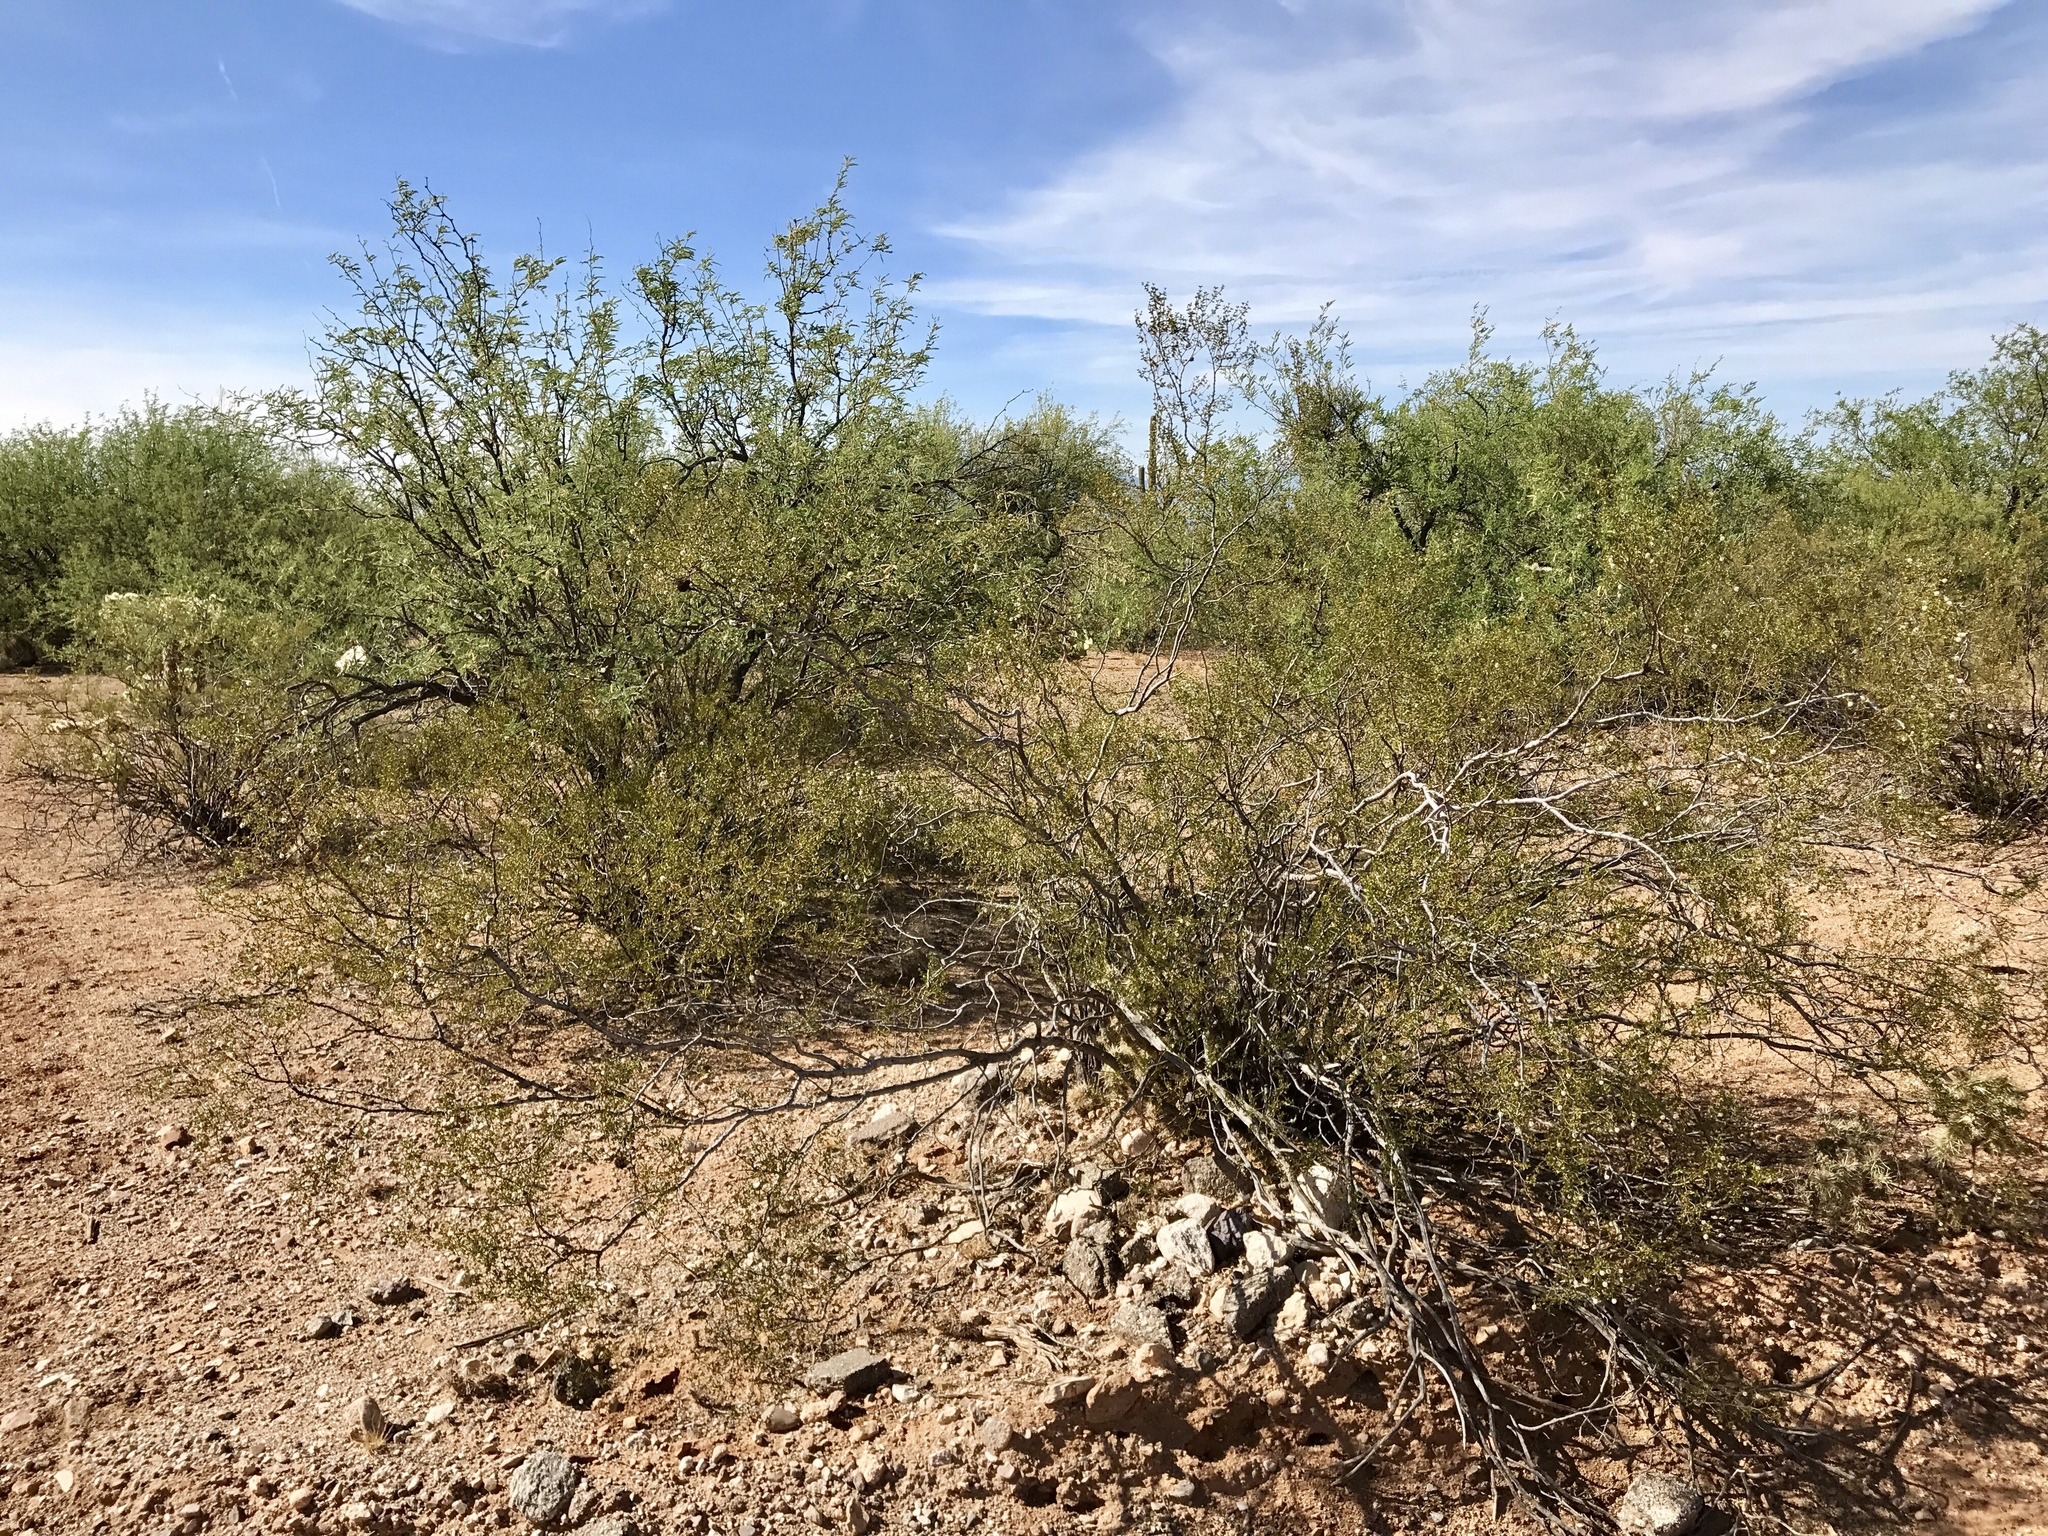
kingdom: Plantae
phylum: Tracheophyta
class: Magnoliopsida
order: Zygophyllales
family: Zygophyllaceae
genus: Larrea
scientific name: Larrea tridentata
